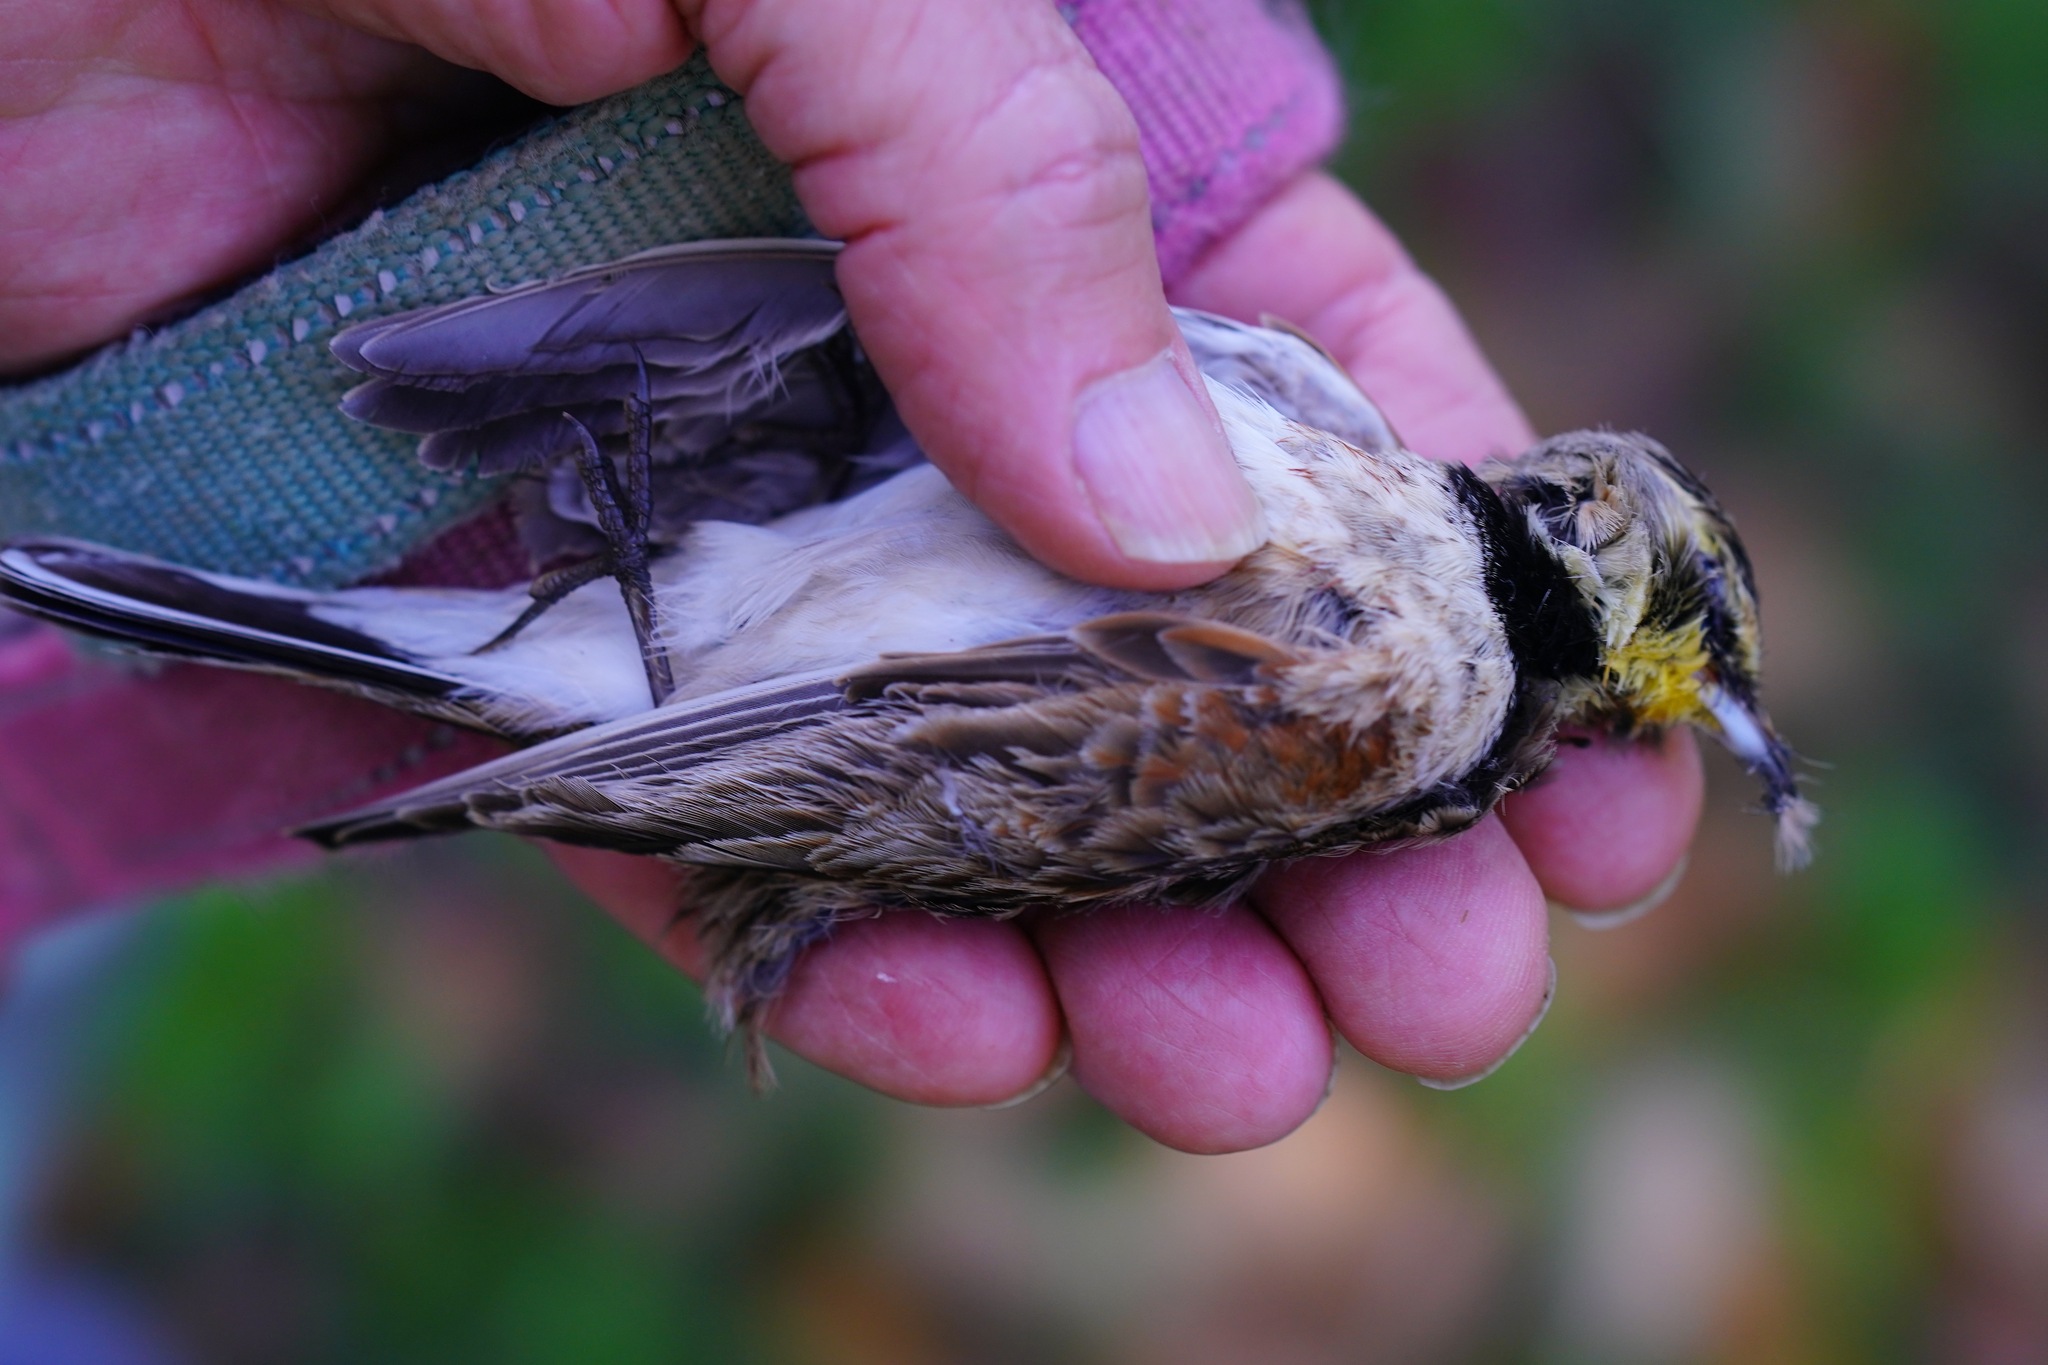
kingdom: Animalia
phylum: Chordata
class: Aves
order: Passeriformes
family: Alaudidae
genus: Eremophila
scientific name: Eremophila alpestris
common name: Horned lark
